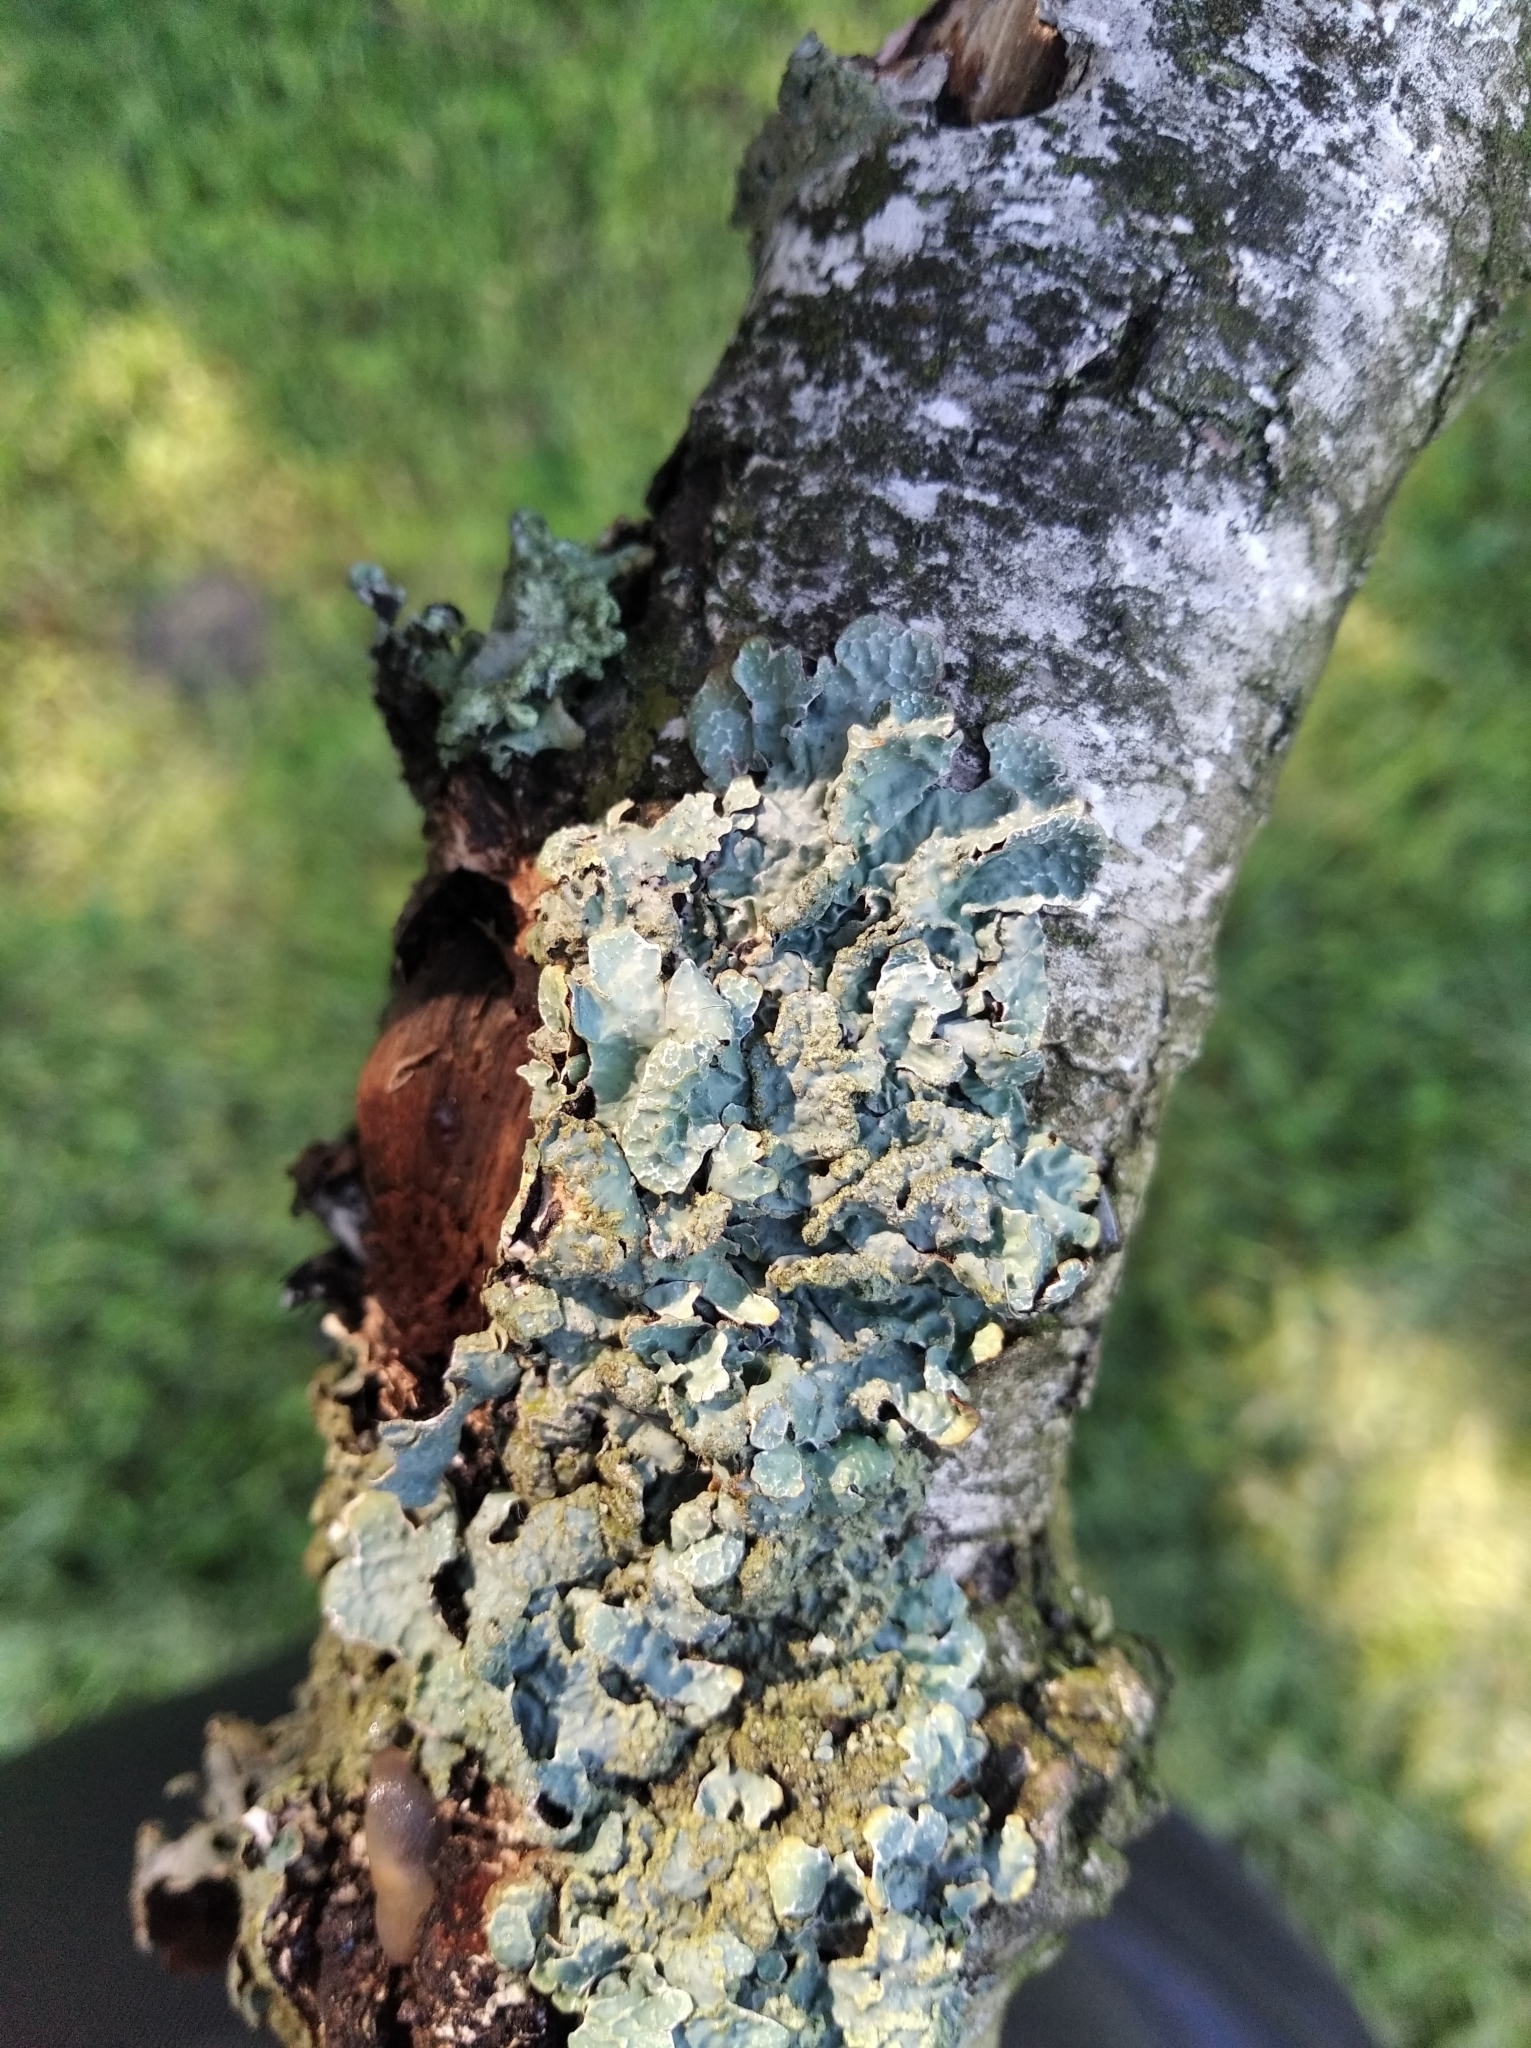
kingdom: Fungi
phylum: Ascomycota
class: Lecanoromycetes
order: Lecanorales
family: Parmeliaceae
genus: Parmelia
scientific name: Parmelia sulcata
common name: Netted shield lichen
